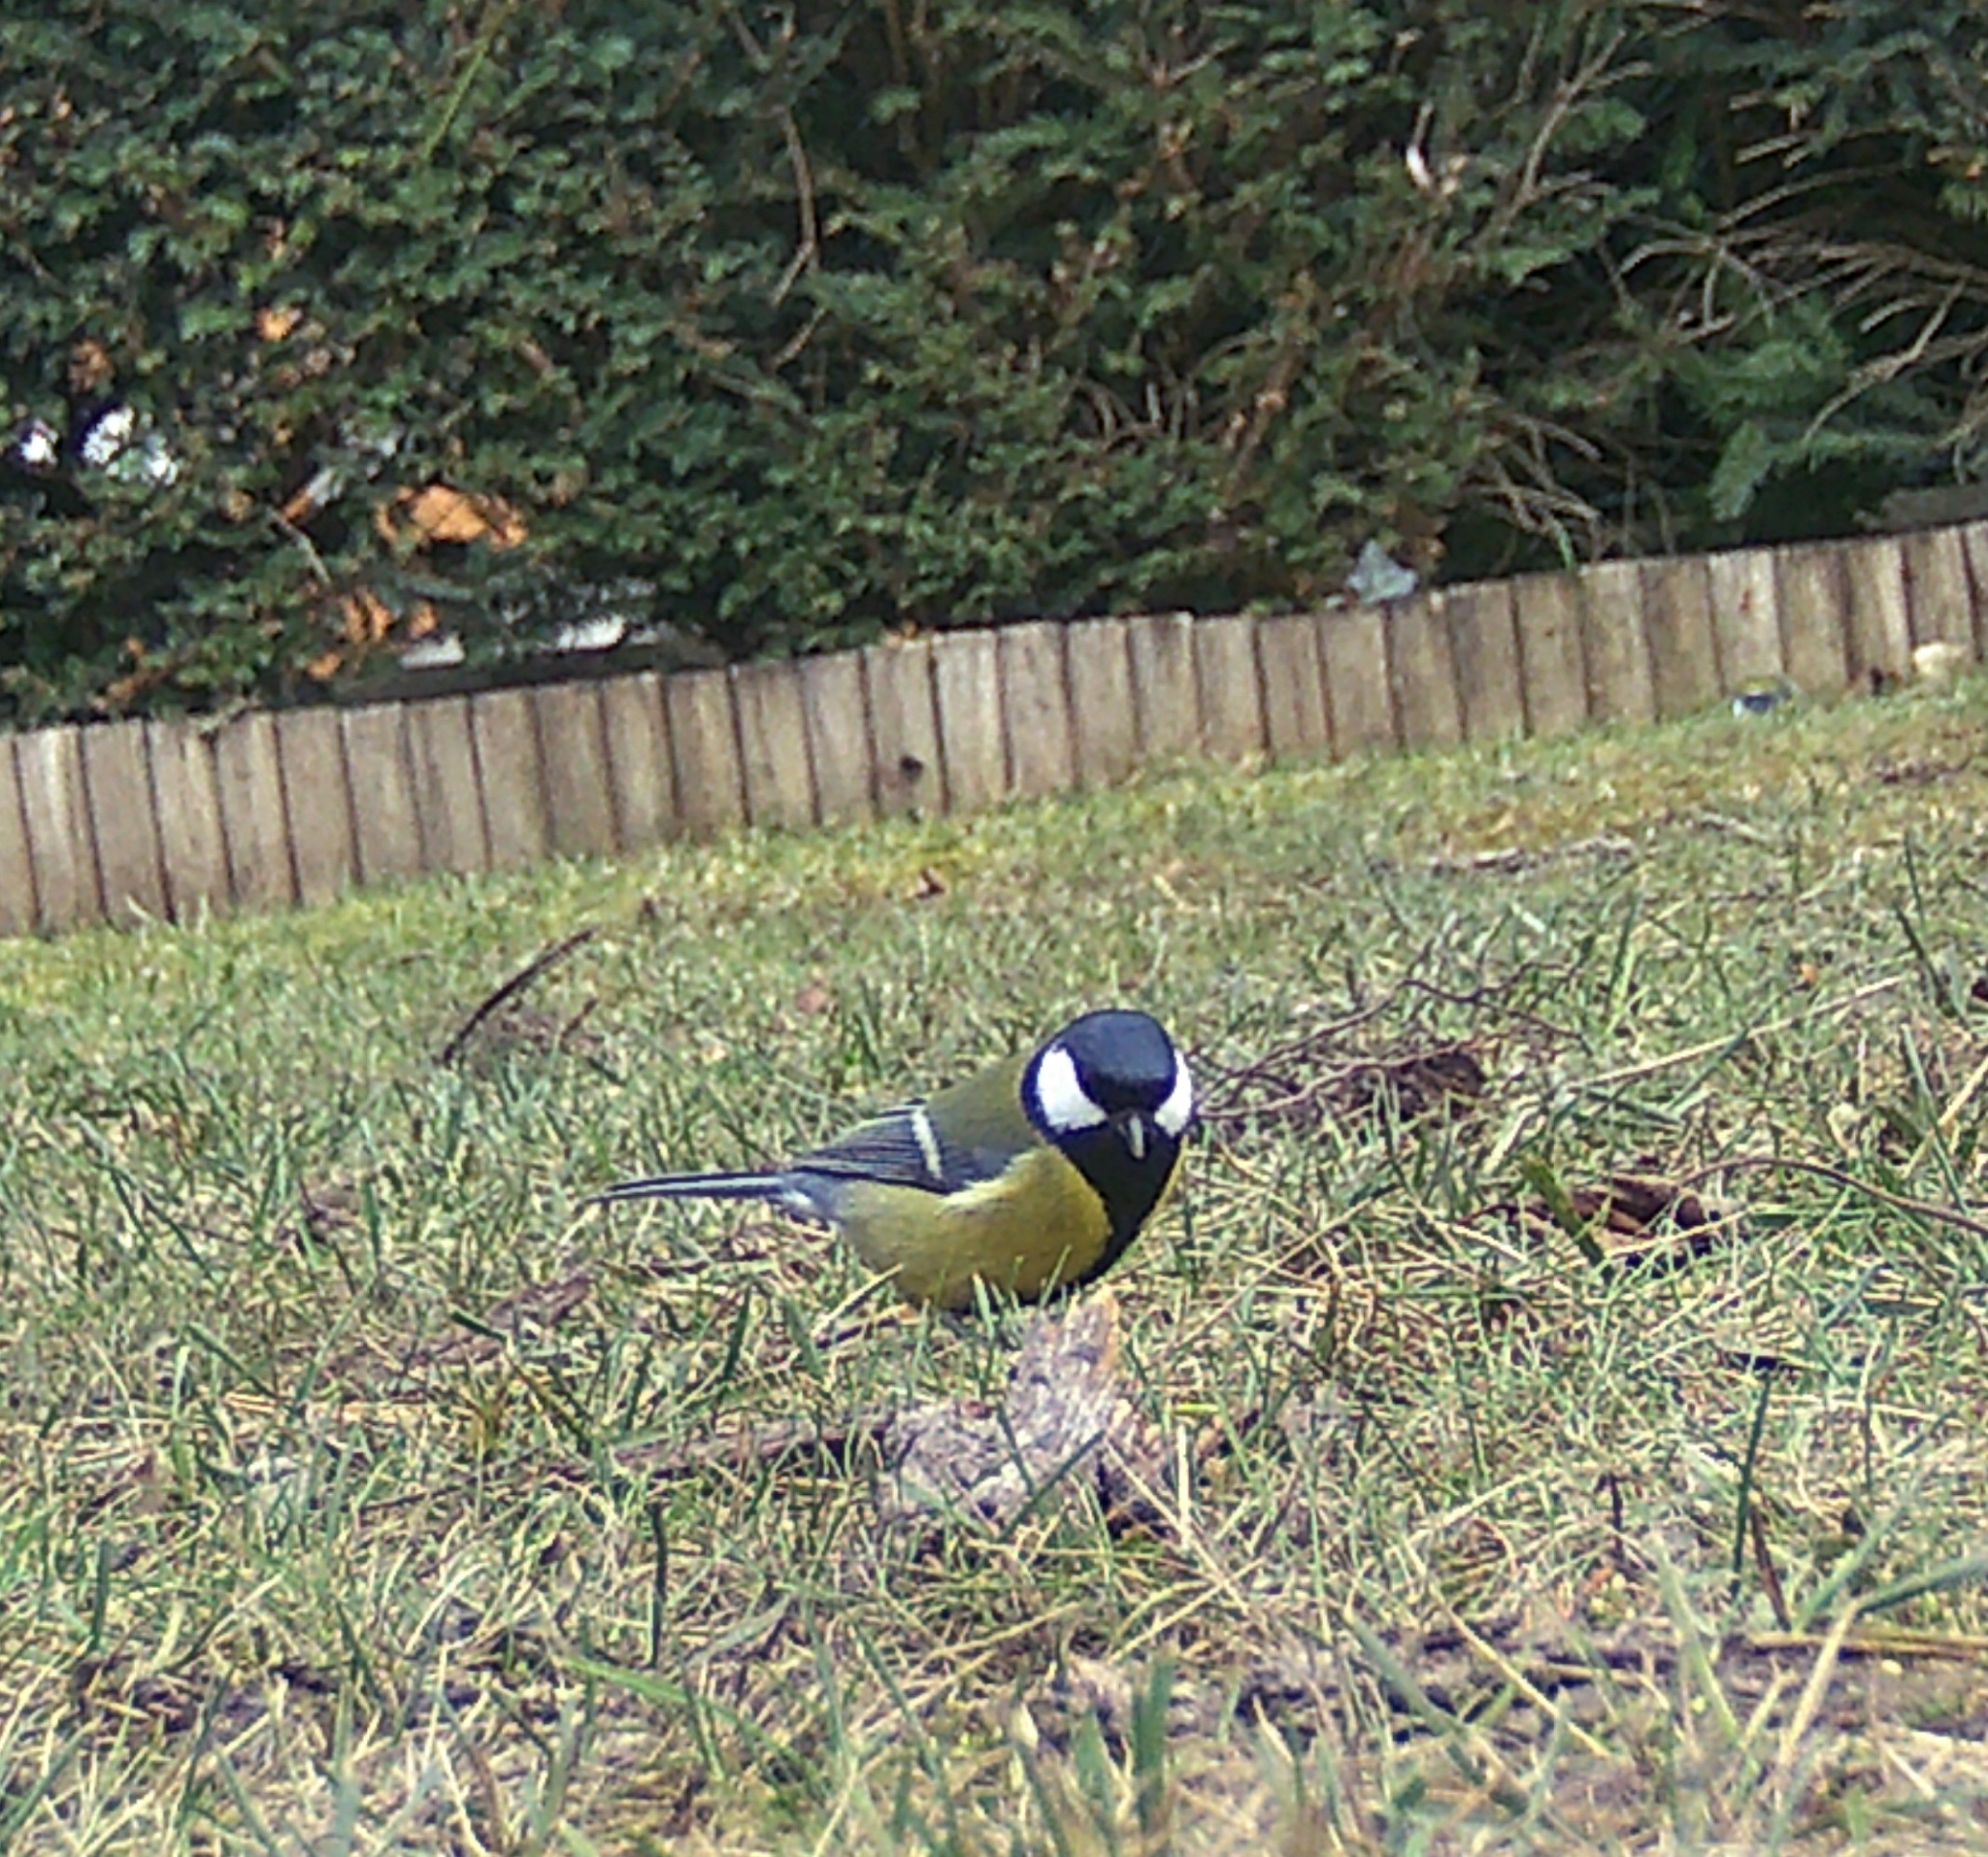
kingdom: Animalia
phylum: Chordata
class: Aves
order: Passeriformes
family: Paridae
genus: Parus
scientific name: Parus major
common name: Great tit
